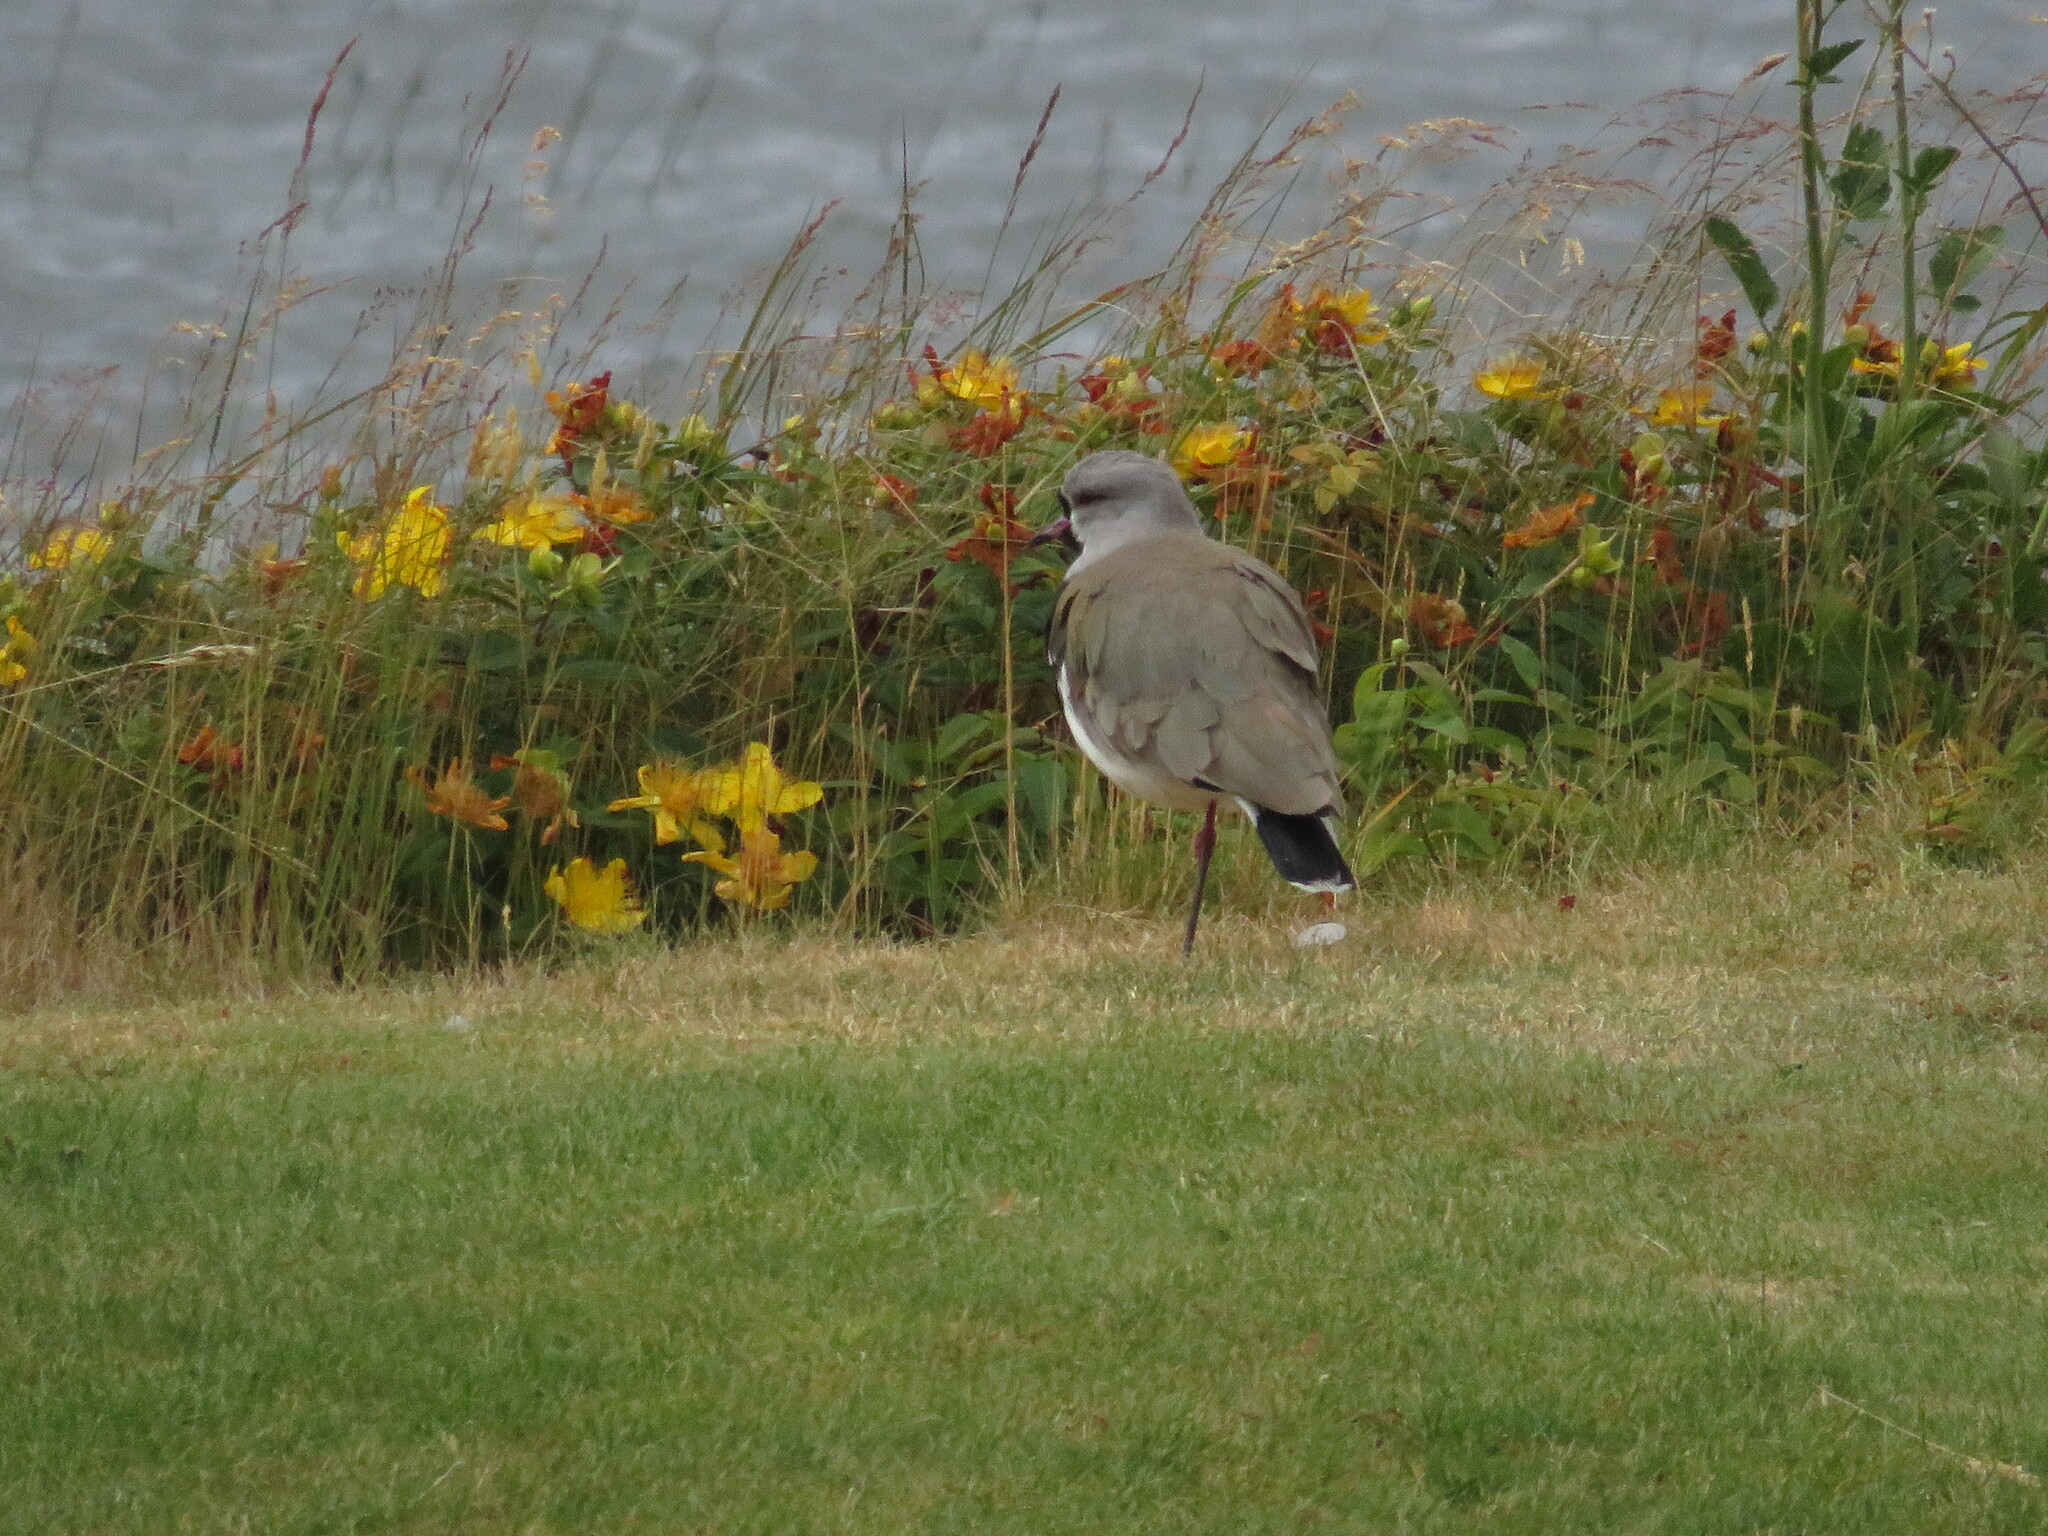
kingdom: Animalia
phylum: Chordata
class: Aves
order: Charadriiformes
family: Charadriidae
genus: Vanellus
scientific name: Vanellus chilensis
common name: Southern lapwing
